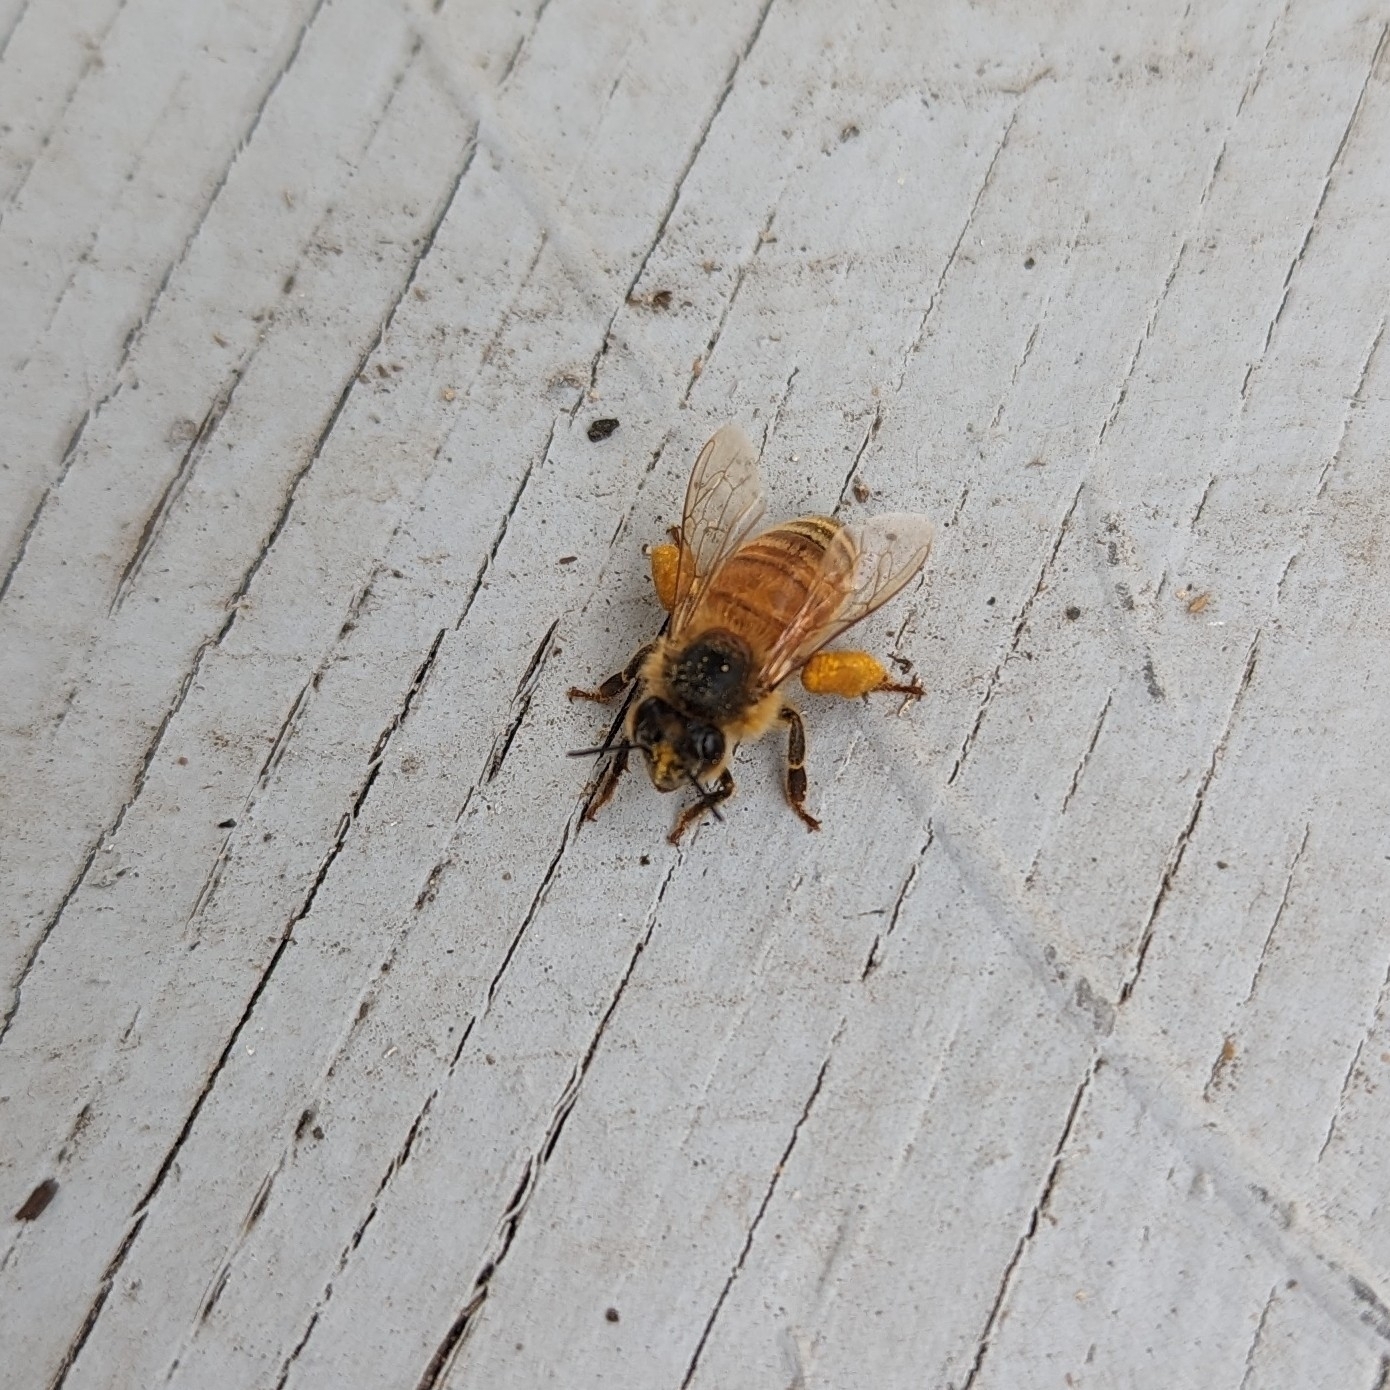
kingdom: Animalia
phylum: Arthropoda
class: Insecta
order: Hymenoptera
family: Apidae
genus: Apis
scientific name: Apis mellifera
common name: Honey bee
